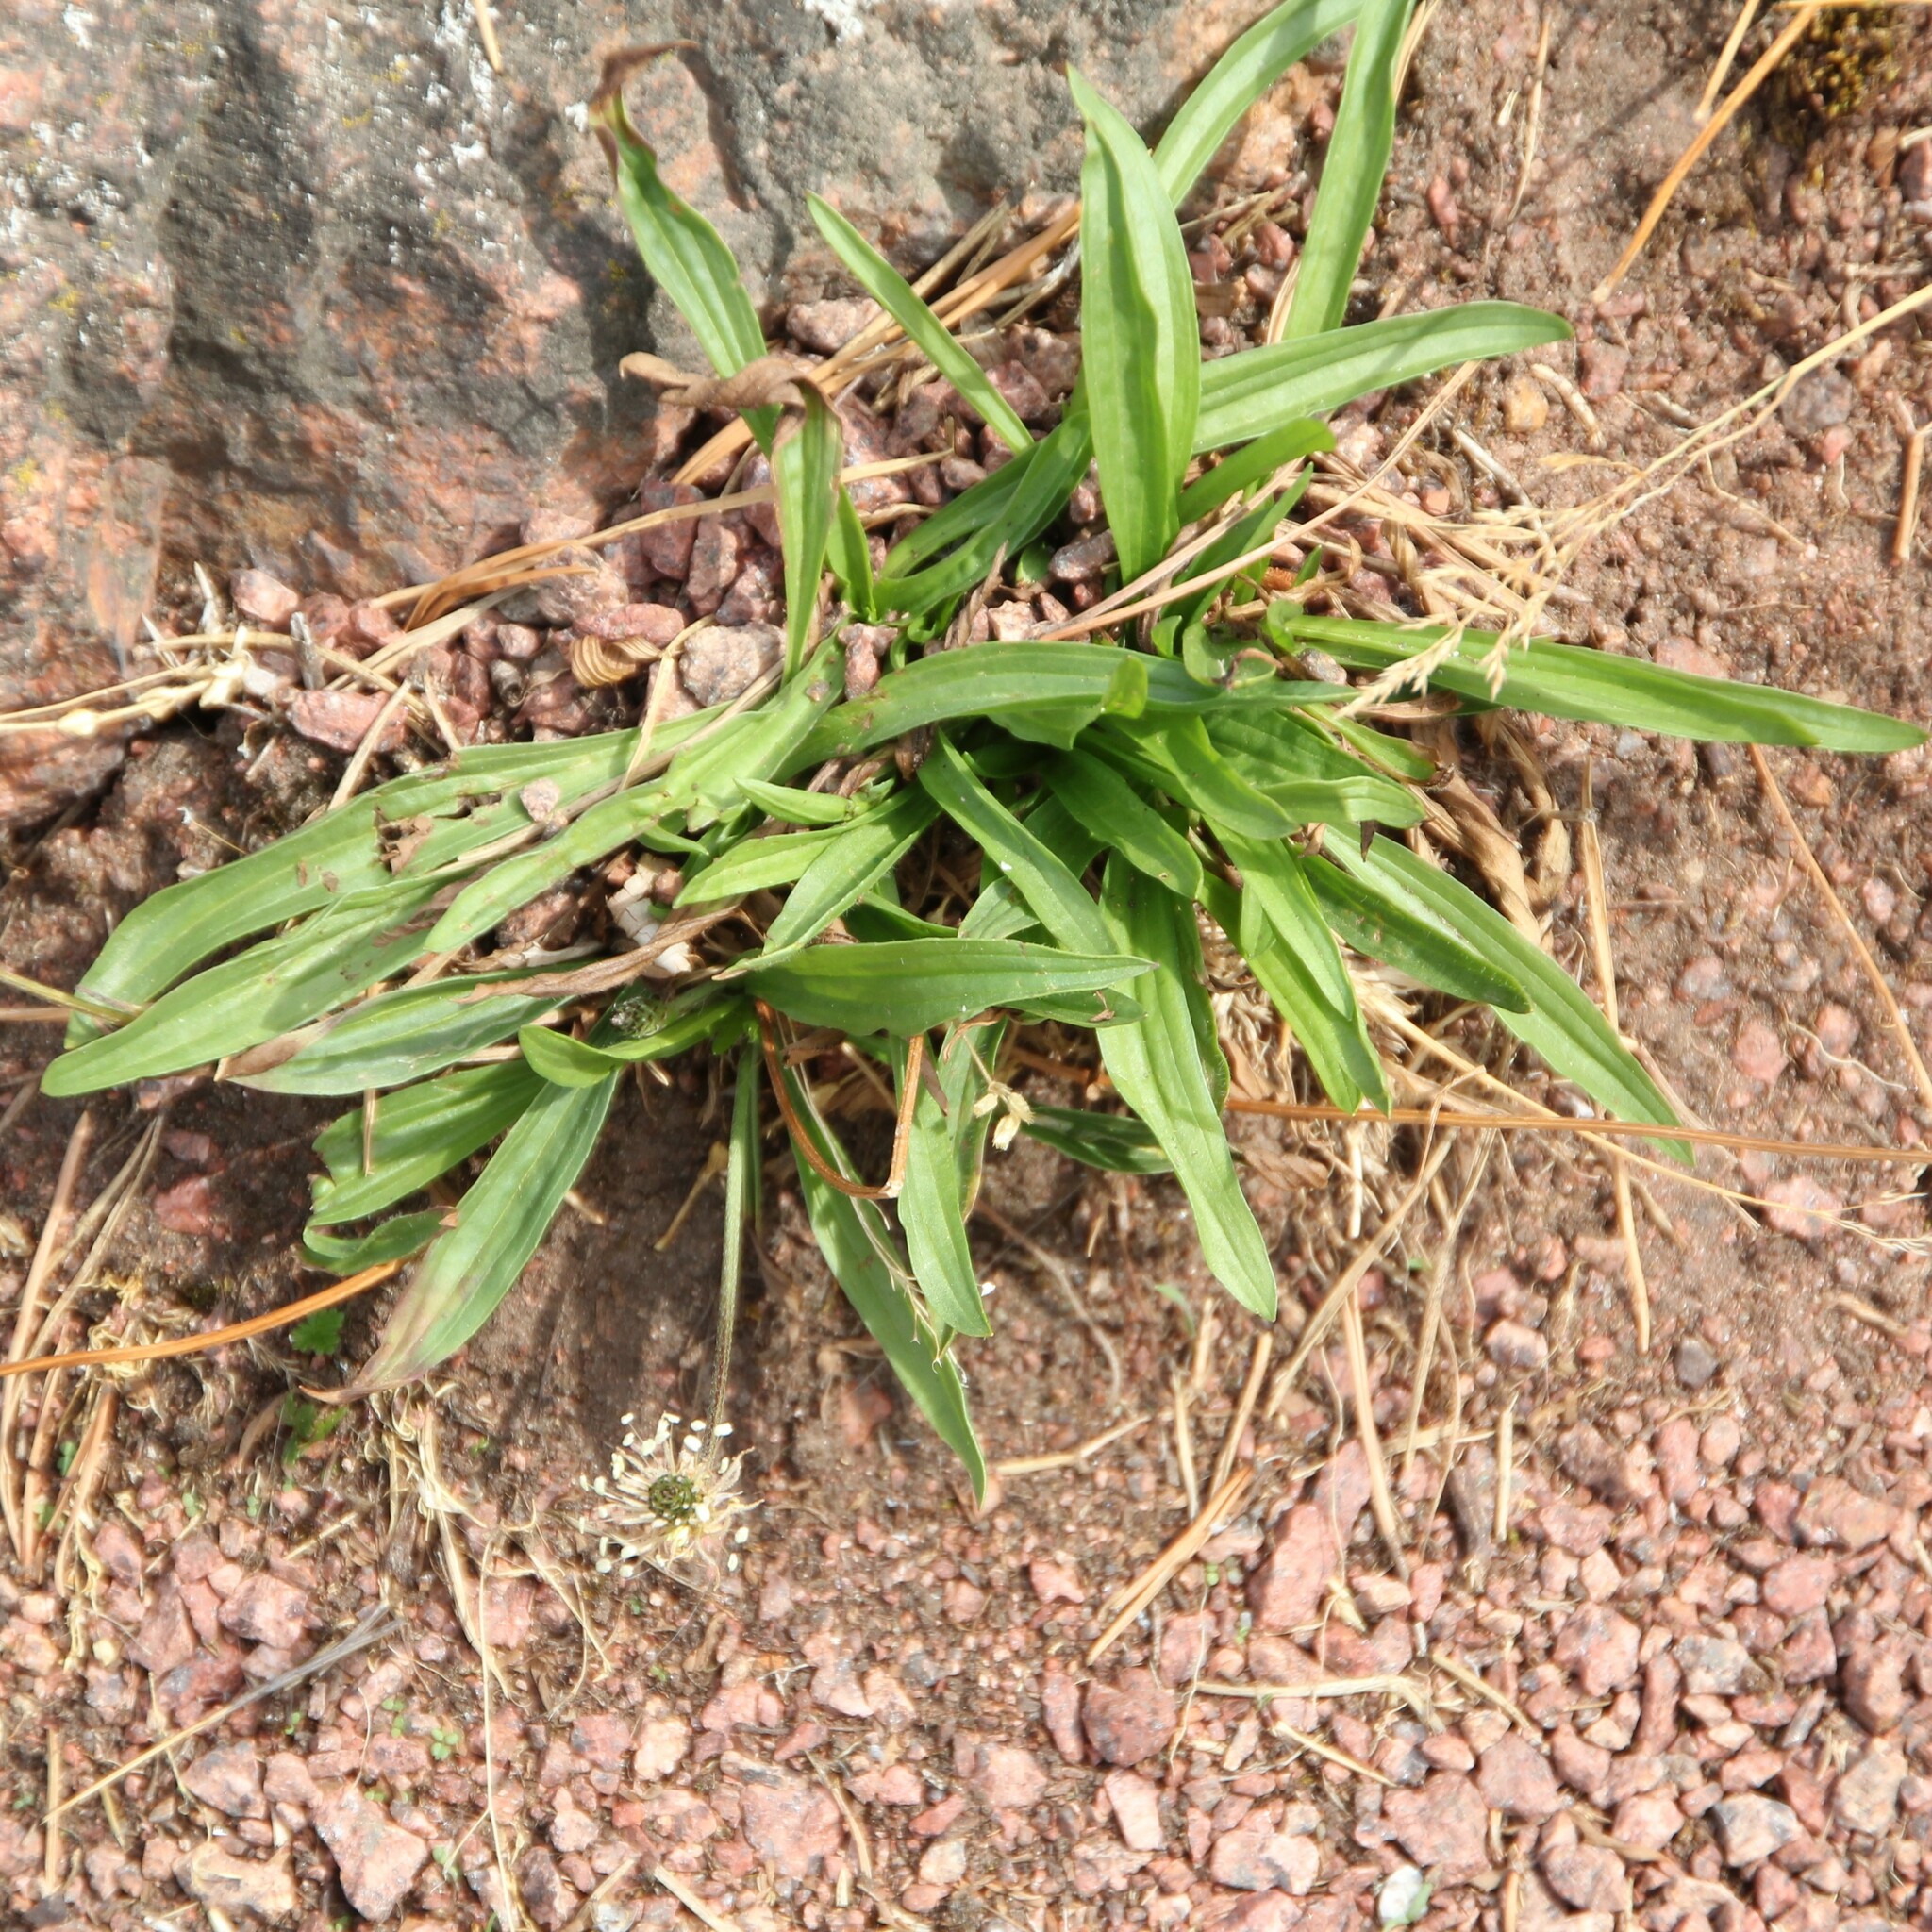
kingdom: Plantae
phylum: Tracheophyta
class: Magnoliopsida
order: Lamiales
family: Plantaginaceae
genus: Plantago
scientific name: Plantago lanceolata
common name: Ribwort plantain
